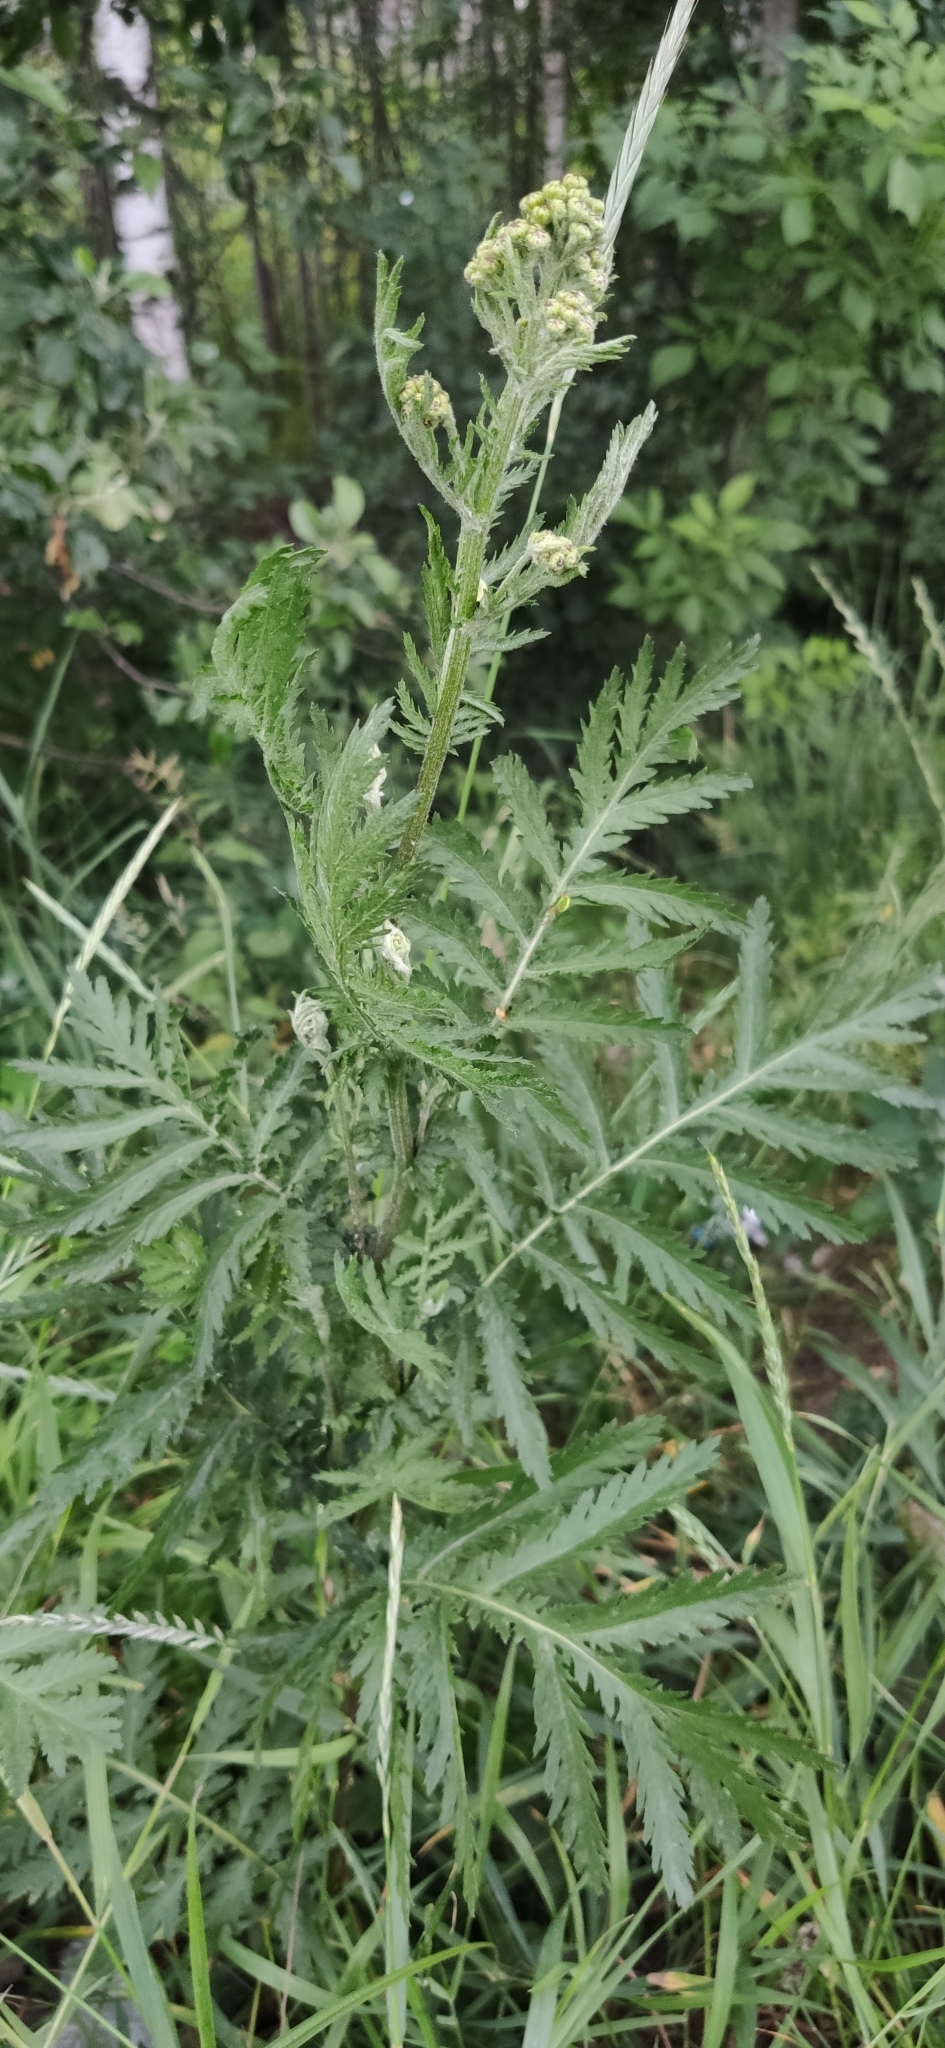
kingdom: Plantae
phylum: Tracheophyta
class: Magnoliopsida
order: Asterales
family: Asteraceae
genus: Tanacetum
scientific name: Tanacetum vulgare
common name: Common tansy
